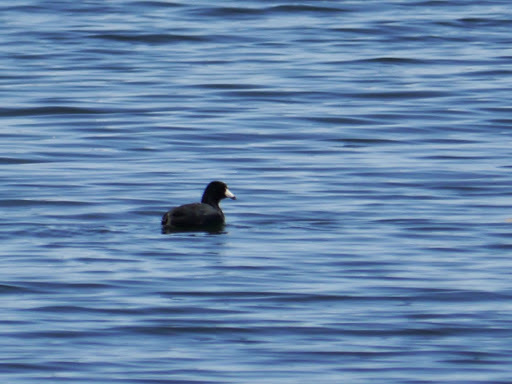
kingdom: Animalia
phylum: Chordata
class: Aves
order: Gruiformes
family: Rallidae
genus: Fulica
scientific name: Fulica americana
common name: American coot
